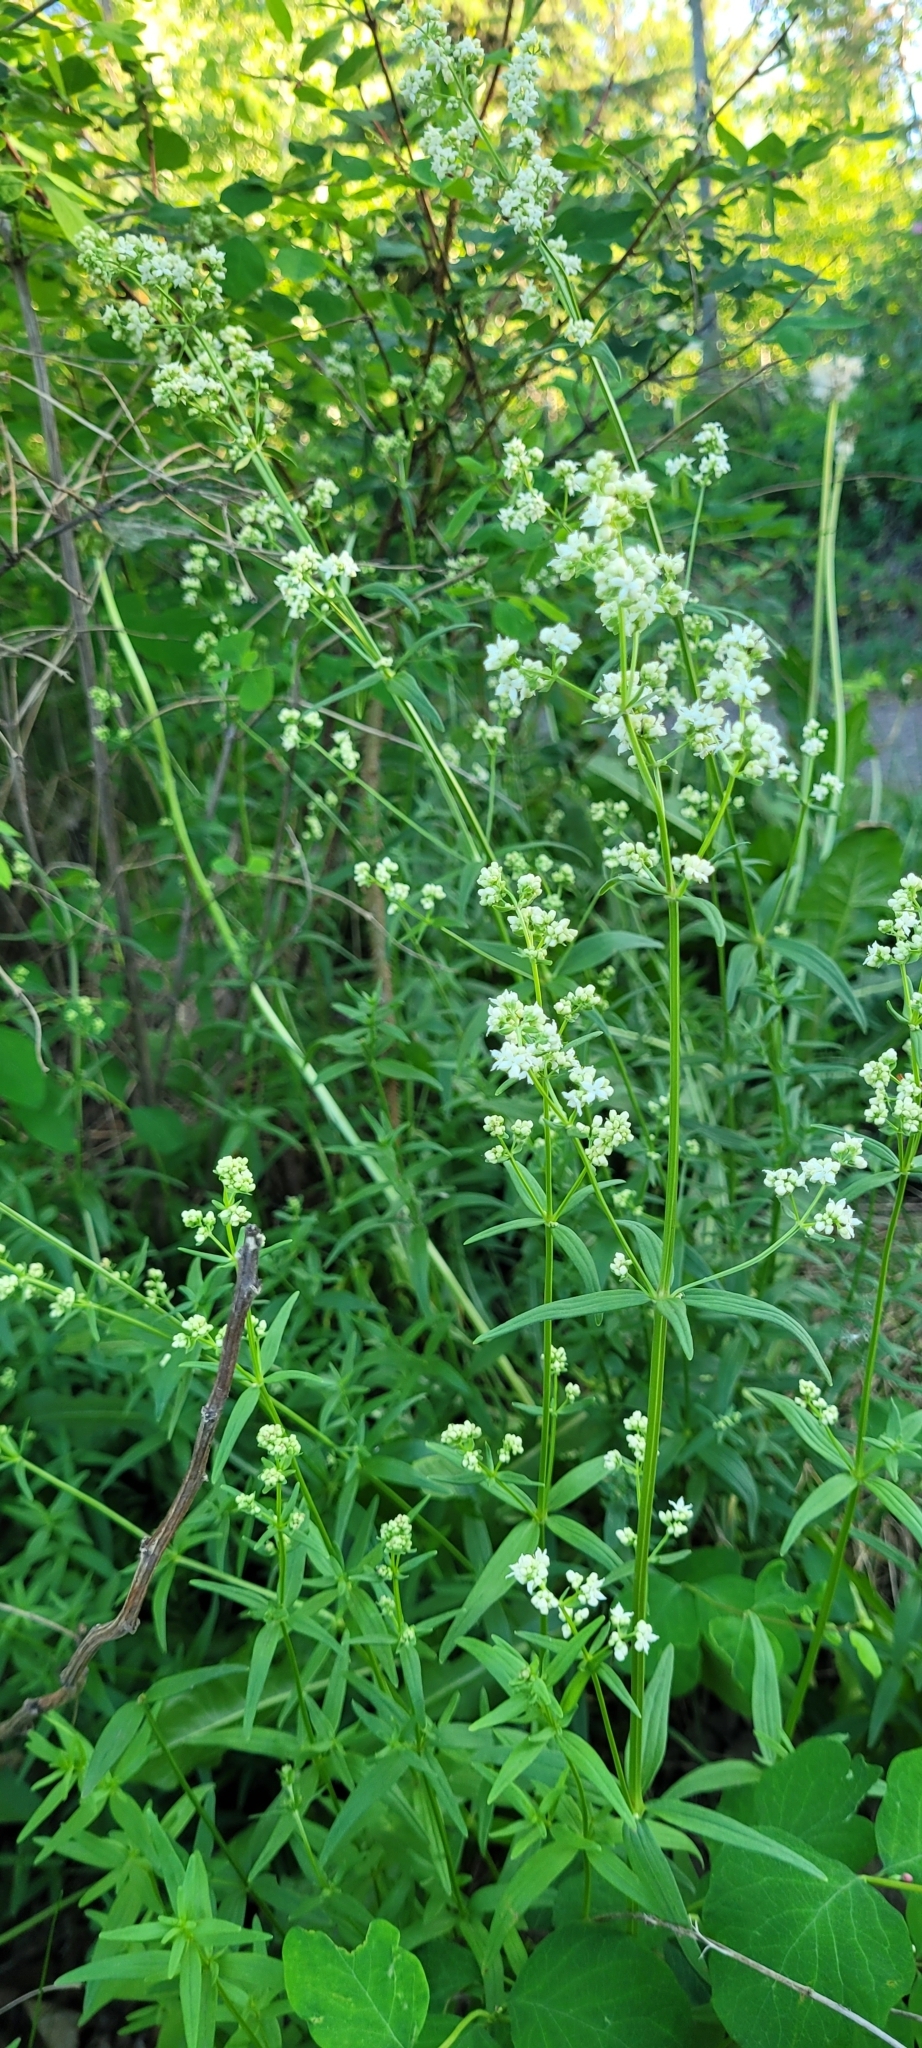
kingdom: Plantae
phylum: Tracheophyta
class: Magnoliopsida
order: Gentianales
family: Rubiaceae
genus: Galium
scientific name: Galium boreale
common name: Northern bedstraw
